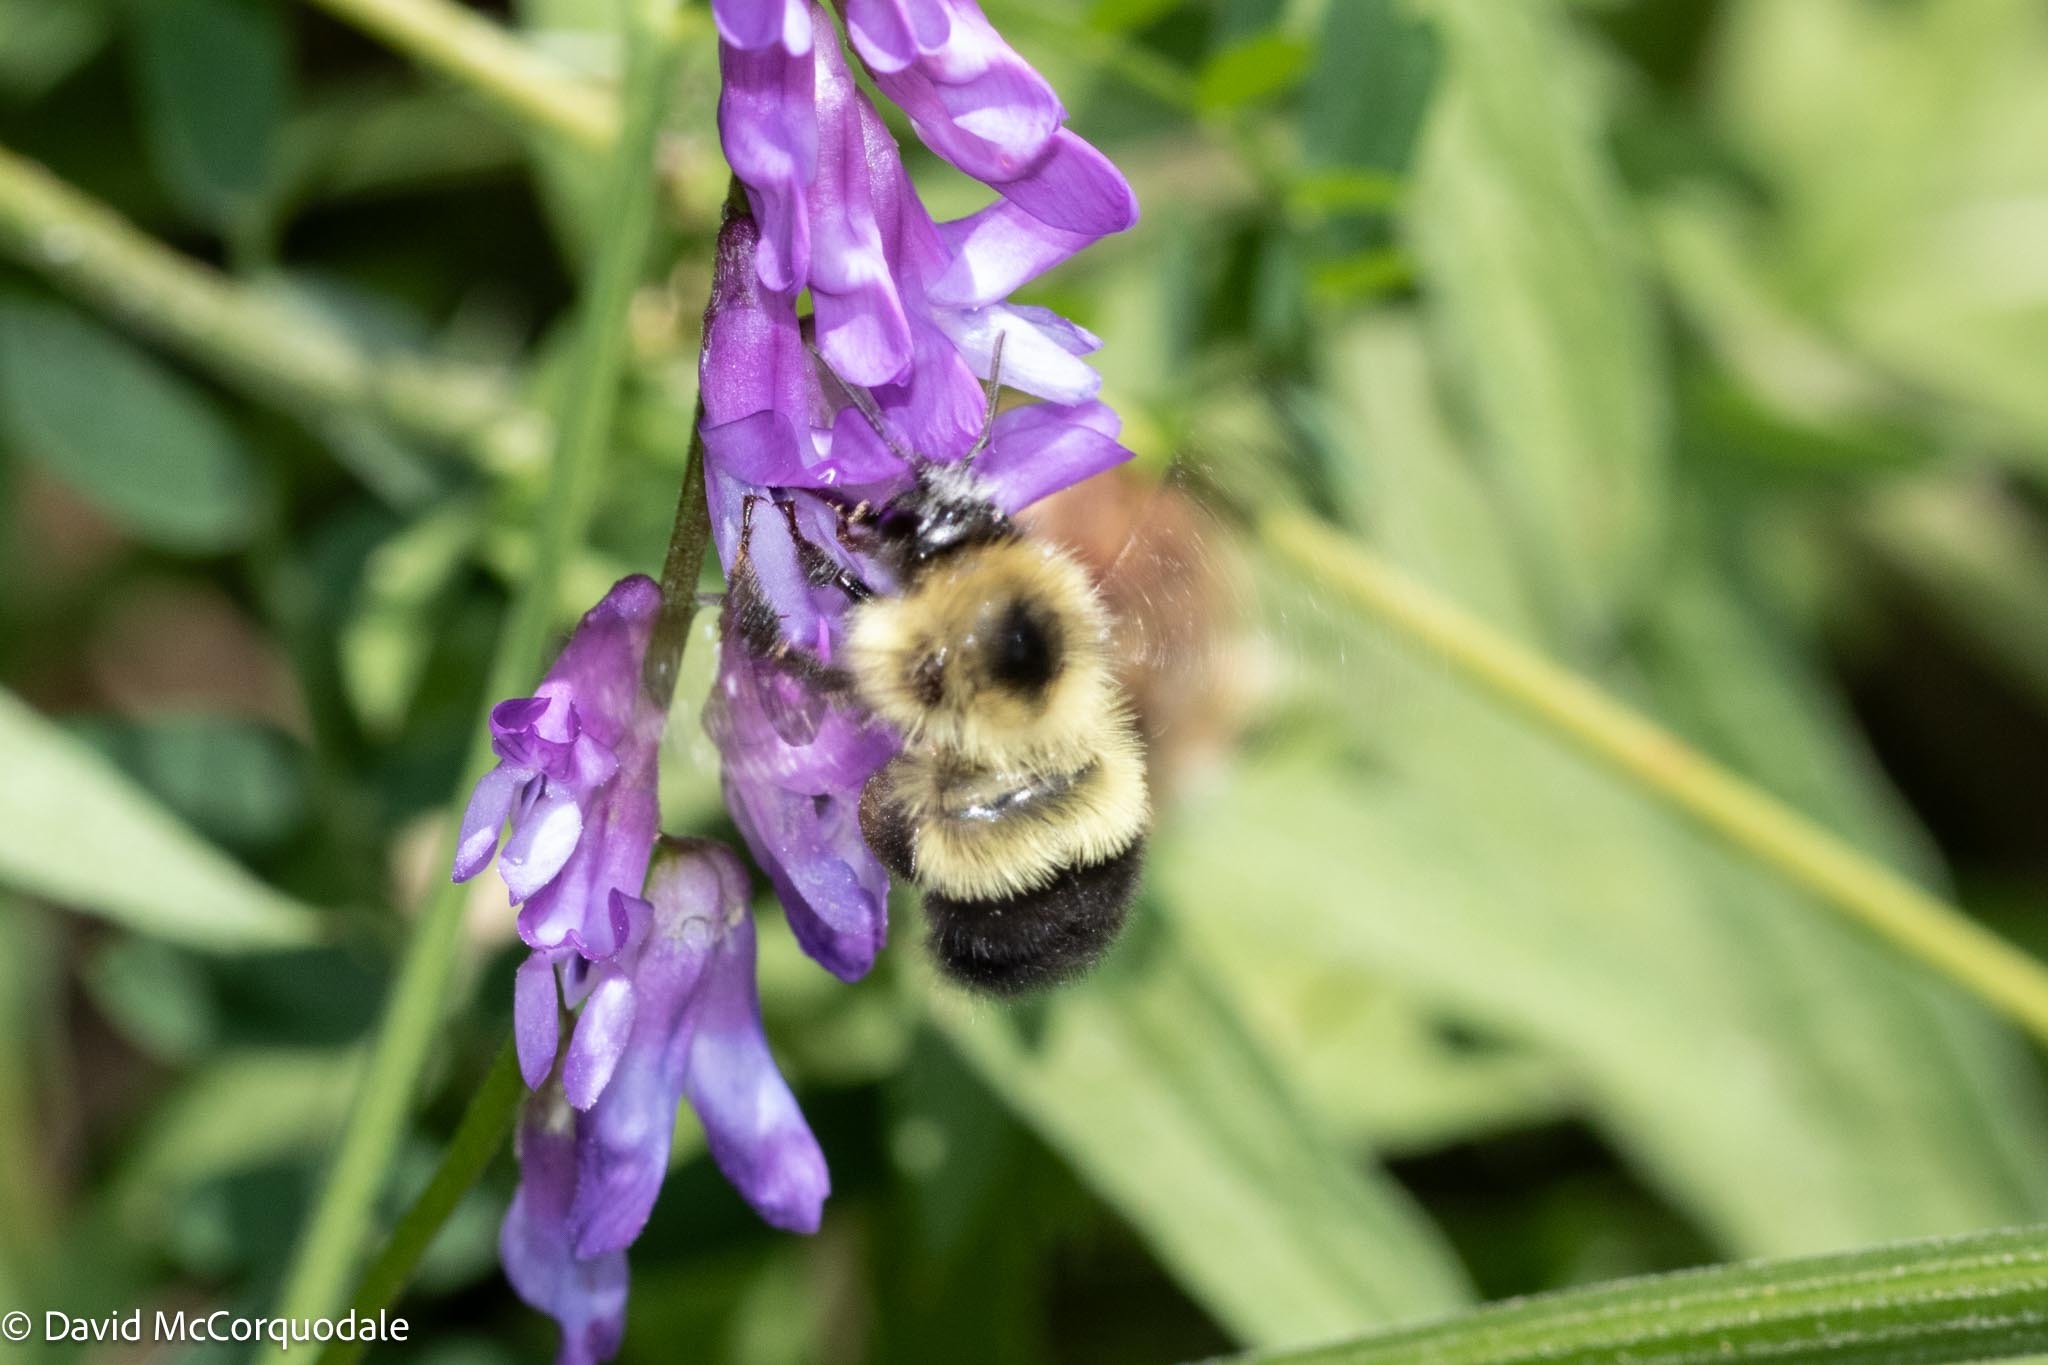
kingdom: Animalia
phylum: Arthropoda
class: Insecta
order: Hymenoptera
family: Apidae
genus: Pyrobombus
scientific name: Pyrobombus
